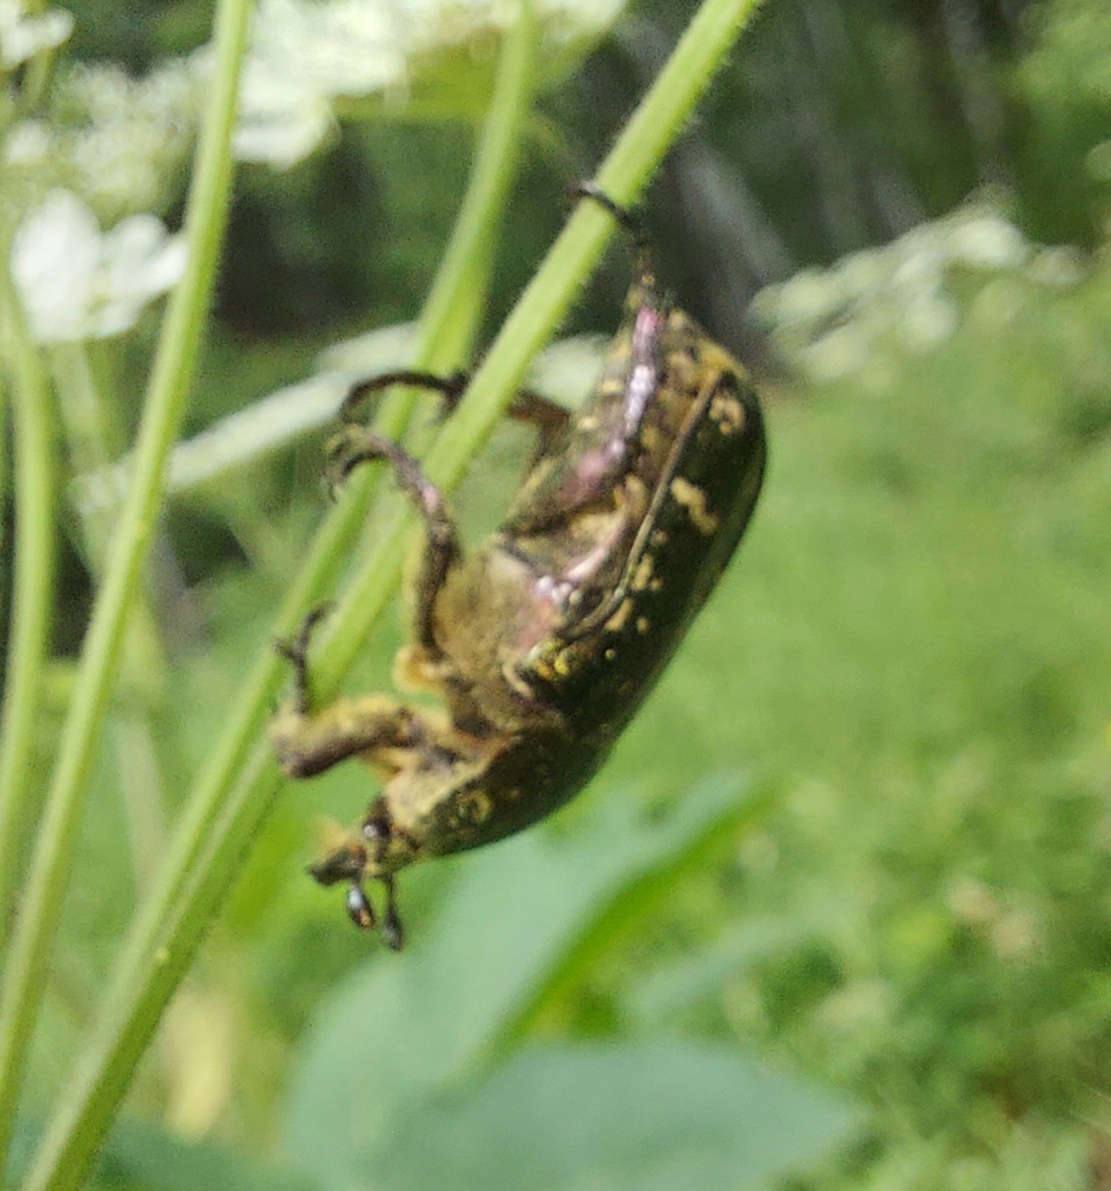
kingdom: Animalia
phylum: Arthropoda
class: Insecta
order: Coleoptera
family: Scarabaeidae
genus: Protaetia
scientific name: Protaetia cuprea
